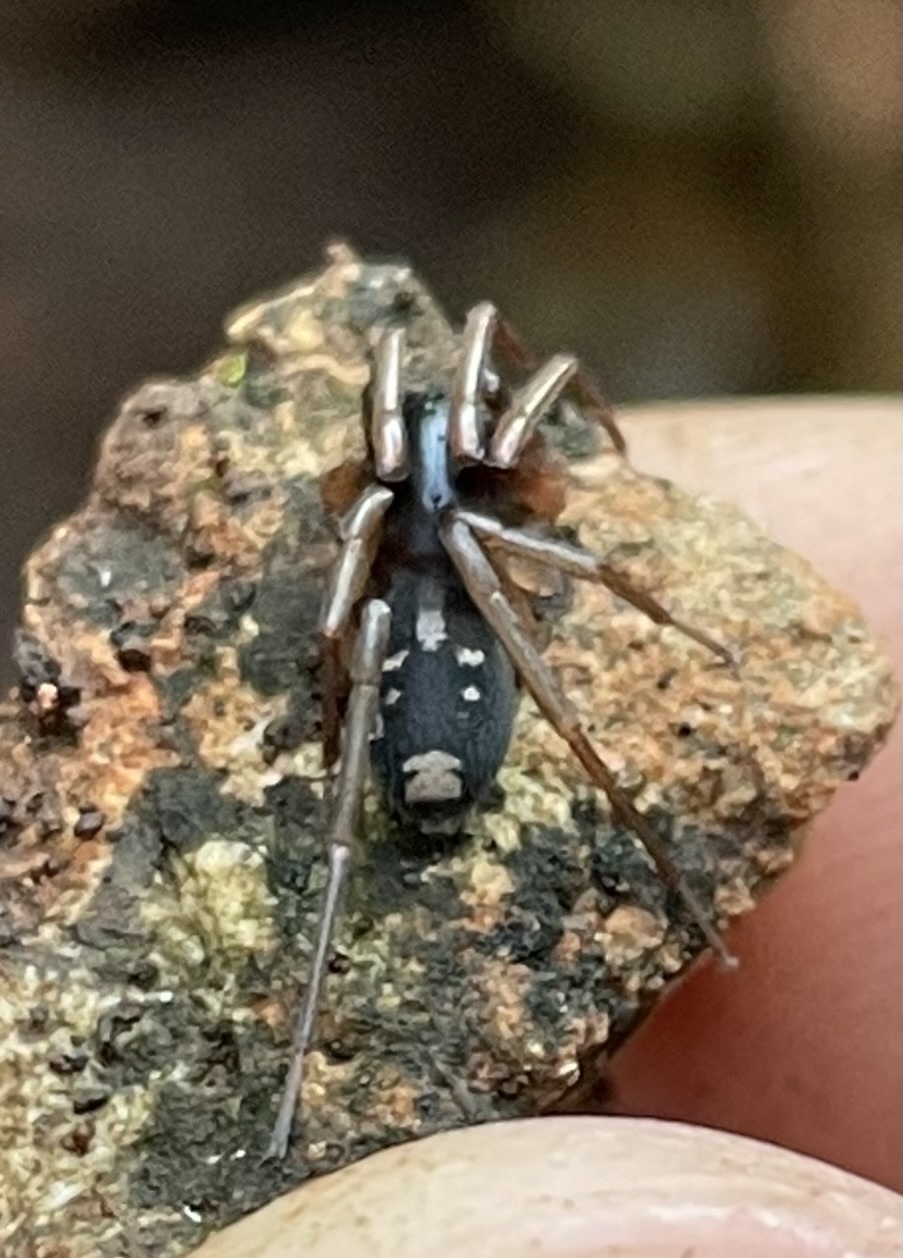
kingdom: Animalia
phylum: Arthropoda
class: Arachnida
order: Araneae
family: Corinnidae
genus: Falconina
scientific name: Falconina gracilis
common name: Antmimic spider
